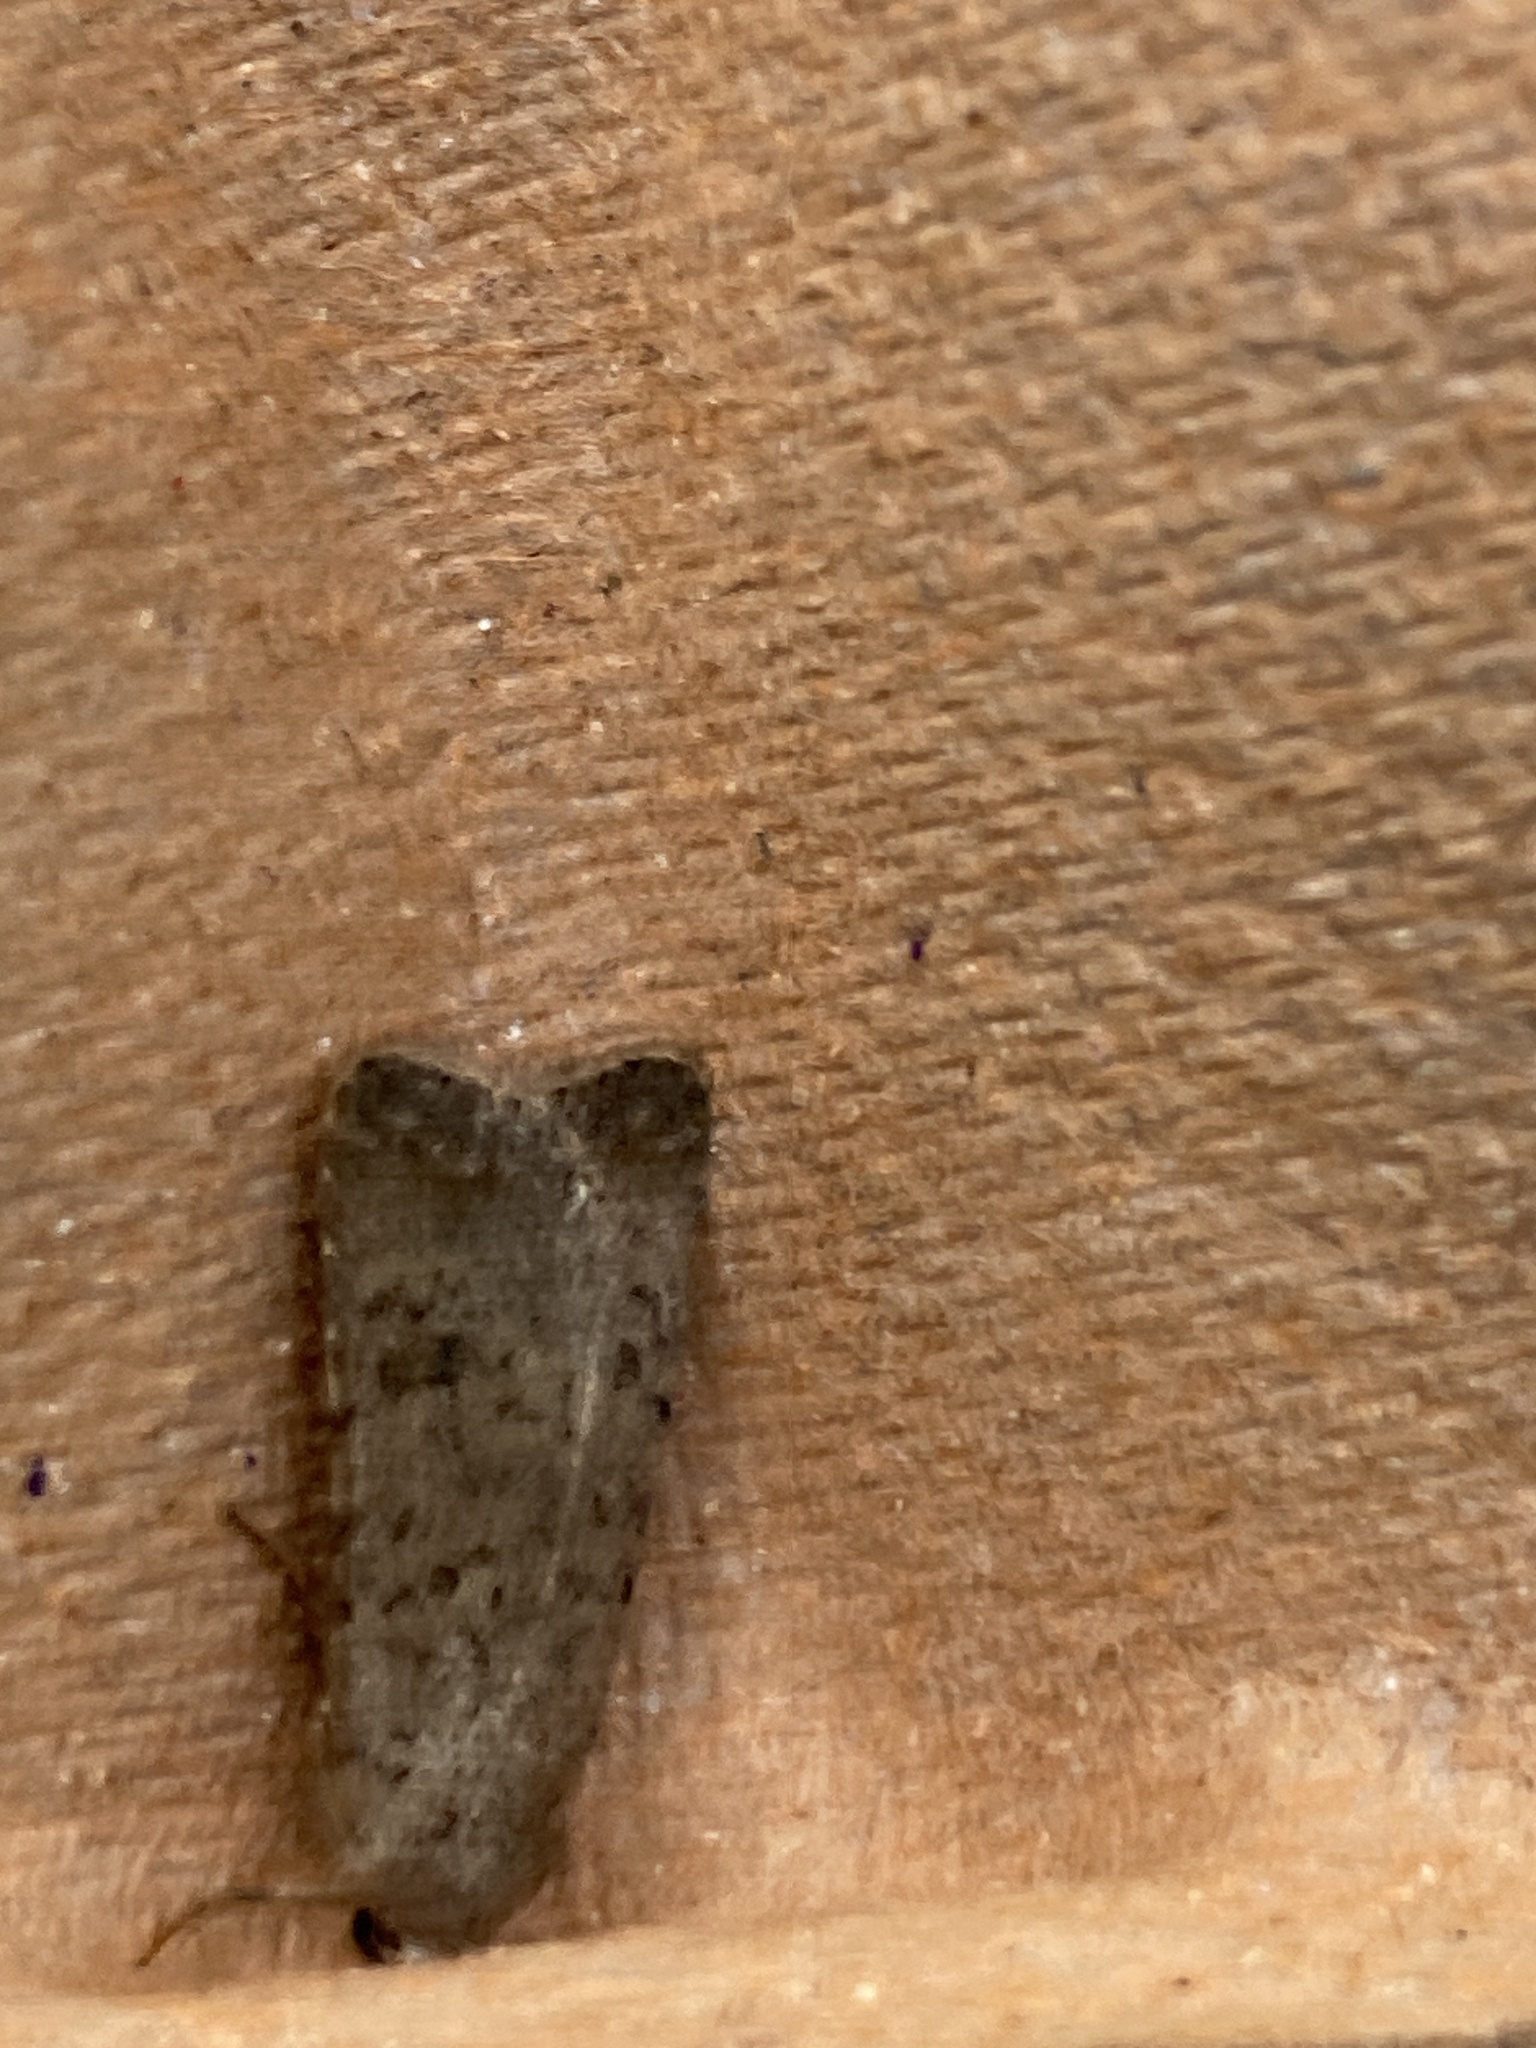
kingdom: Animalia
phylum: Arthropoda
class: Insecta
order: Lepidoptera
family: Noctuidae
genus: Caradrina
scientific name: Caradrina clavipalpis
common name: Pale mottled willow
